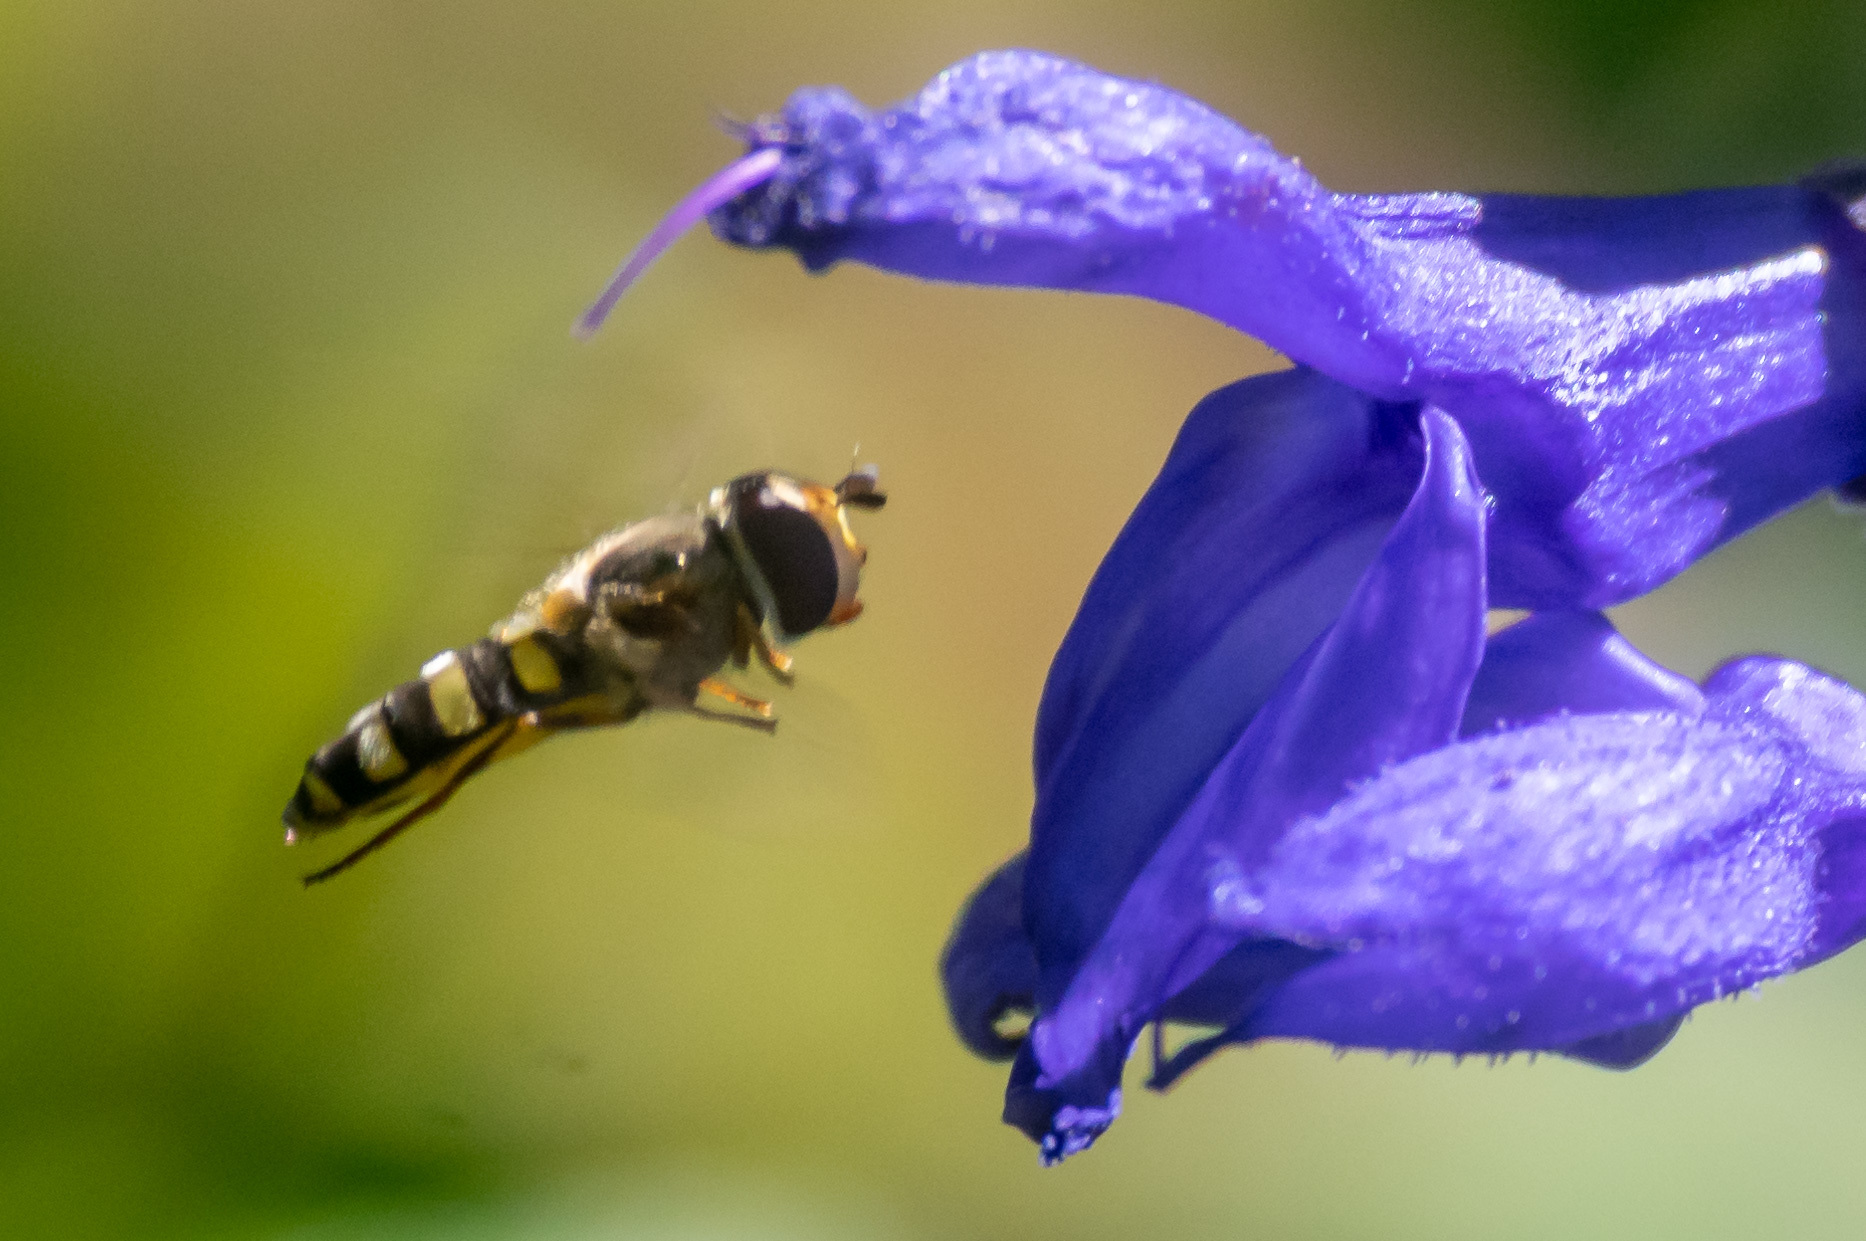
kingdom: Animalia
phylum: Arthropoda
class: Insecta
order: Diptera
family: Syrphidae
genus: Eupeodes
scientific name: Eupeodes
